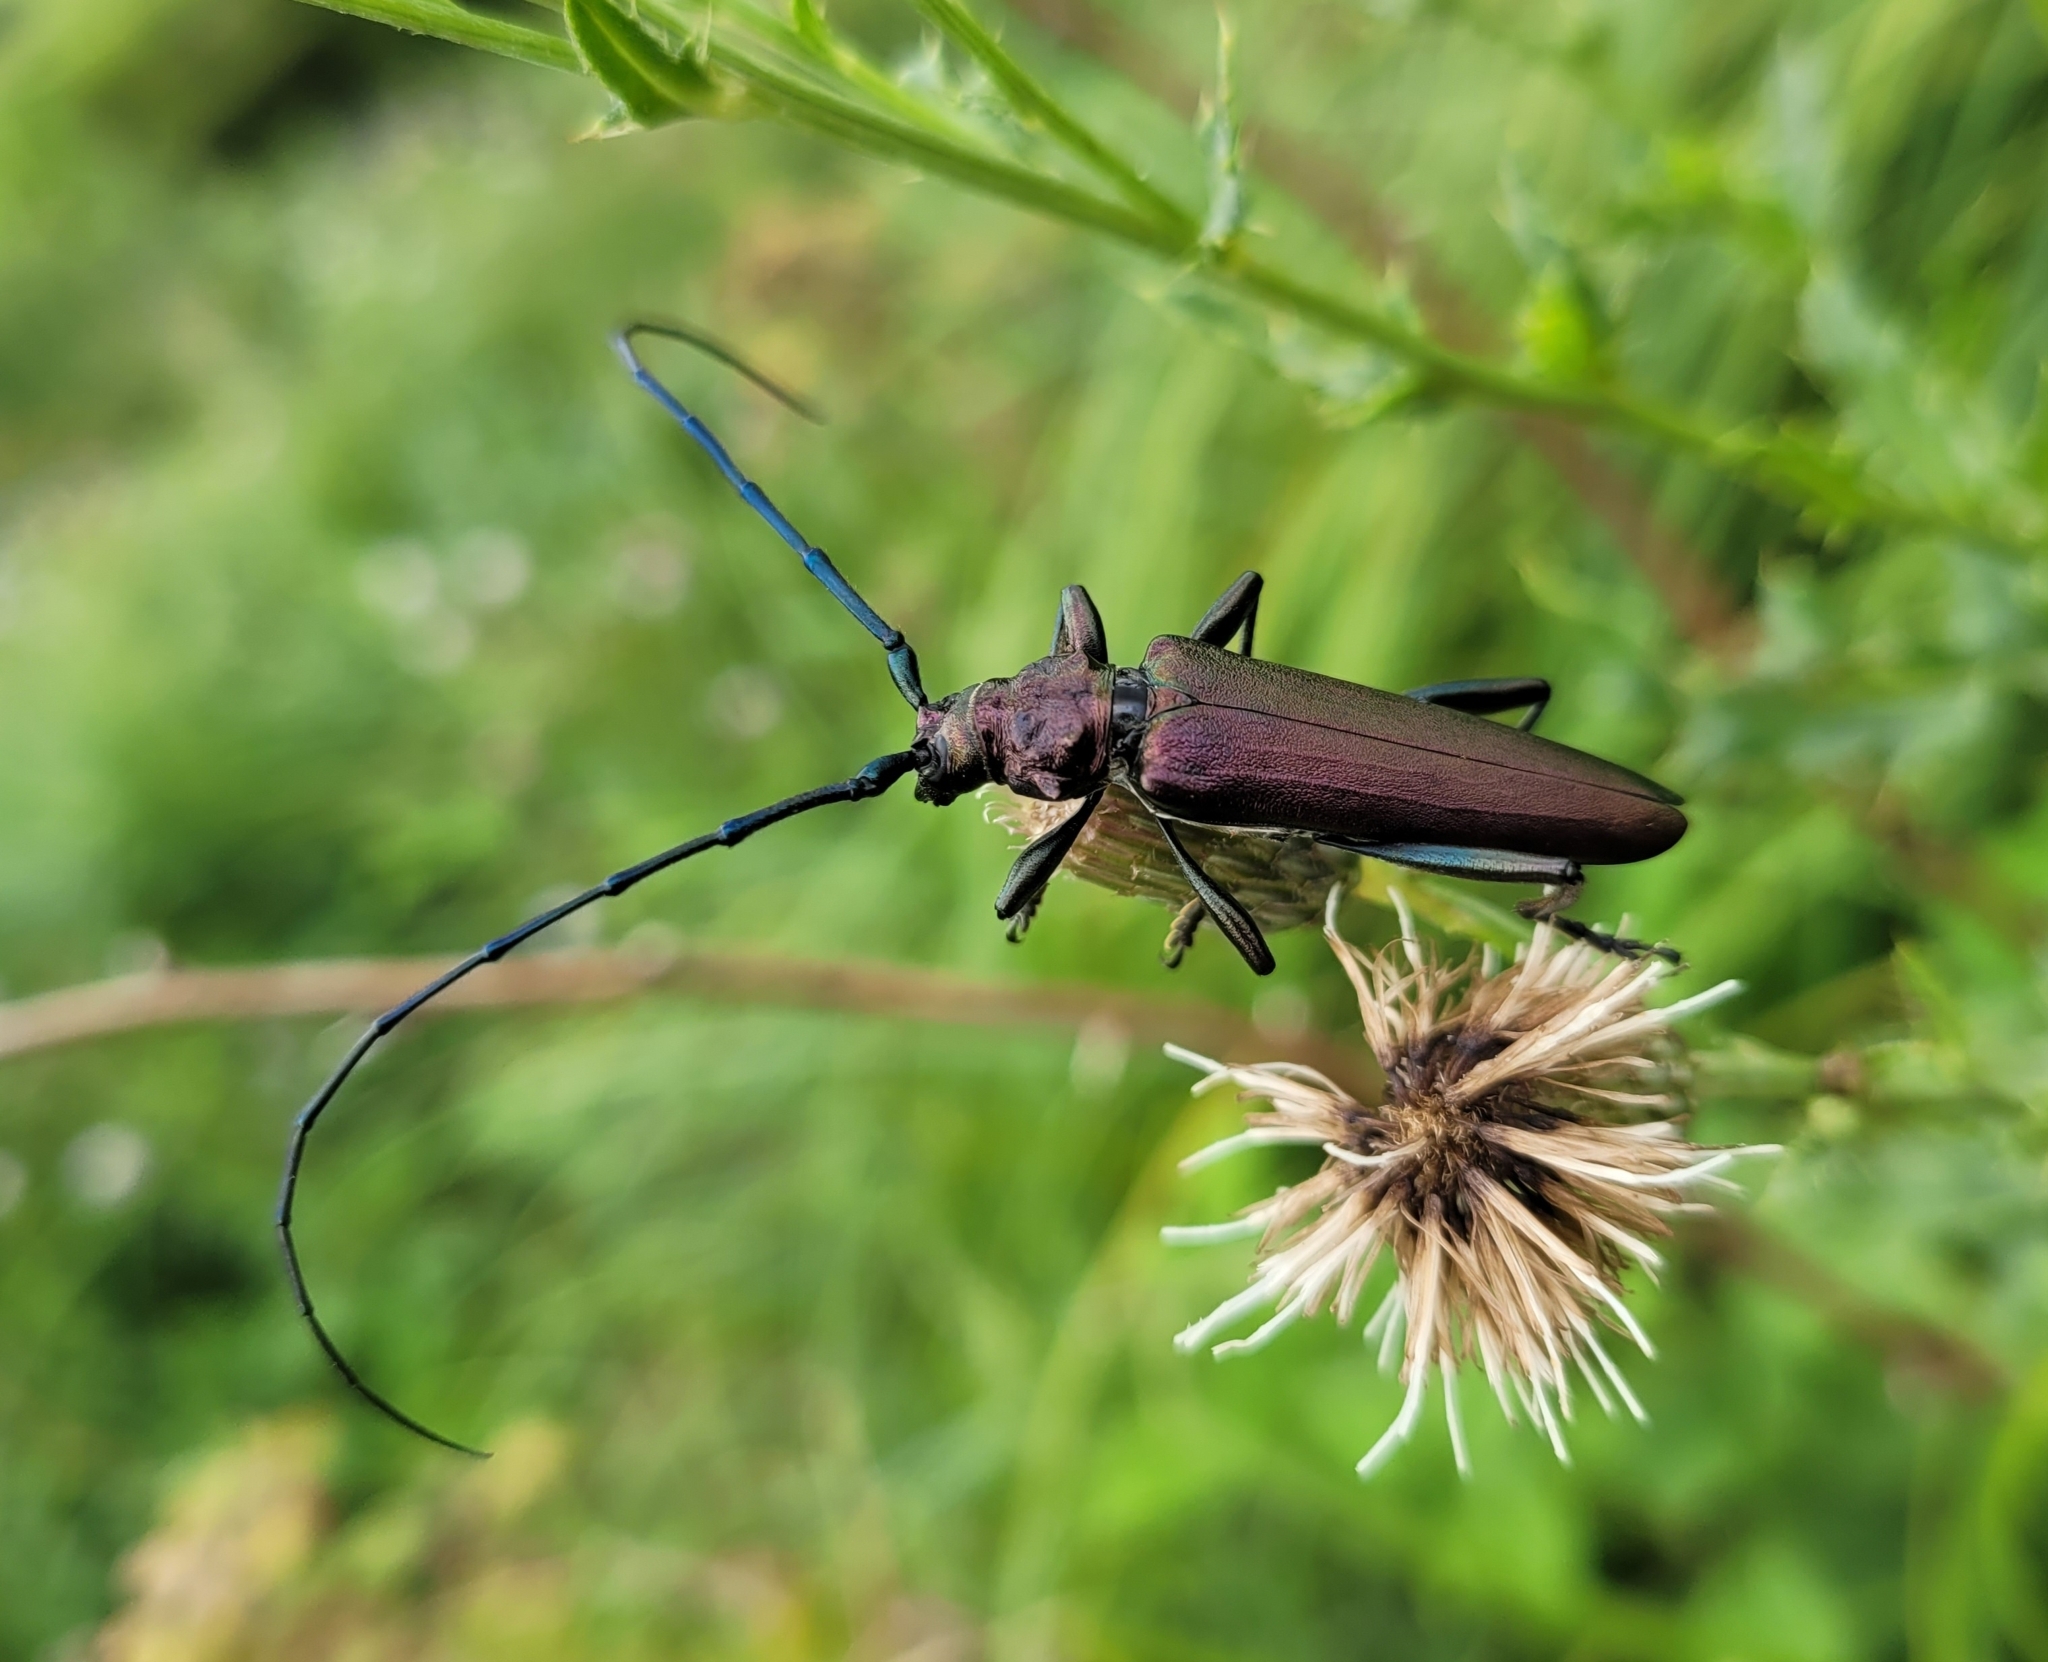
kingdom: Animalia
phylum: Arthropoda
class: Insecta
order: Coleoptera
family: Cerambycidae
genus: Aromia
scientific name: Aromia moschata
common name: Musk beetle
